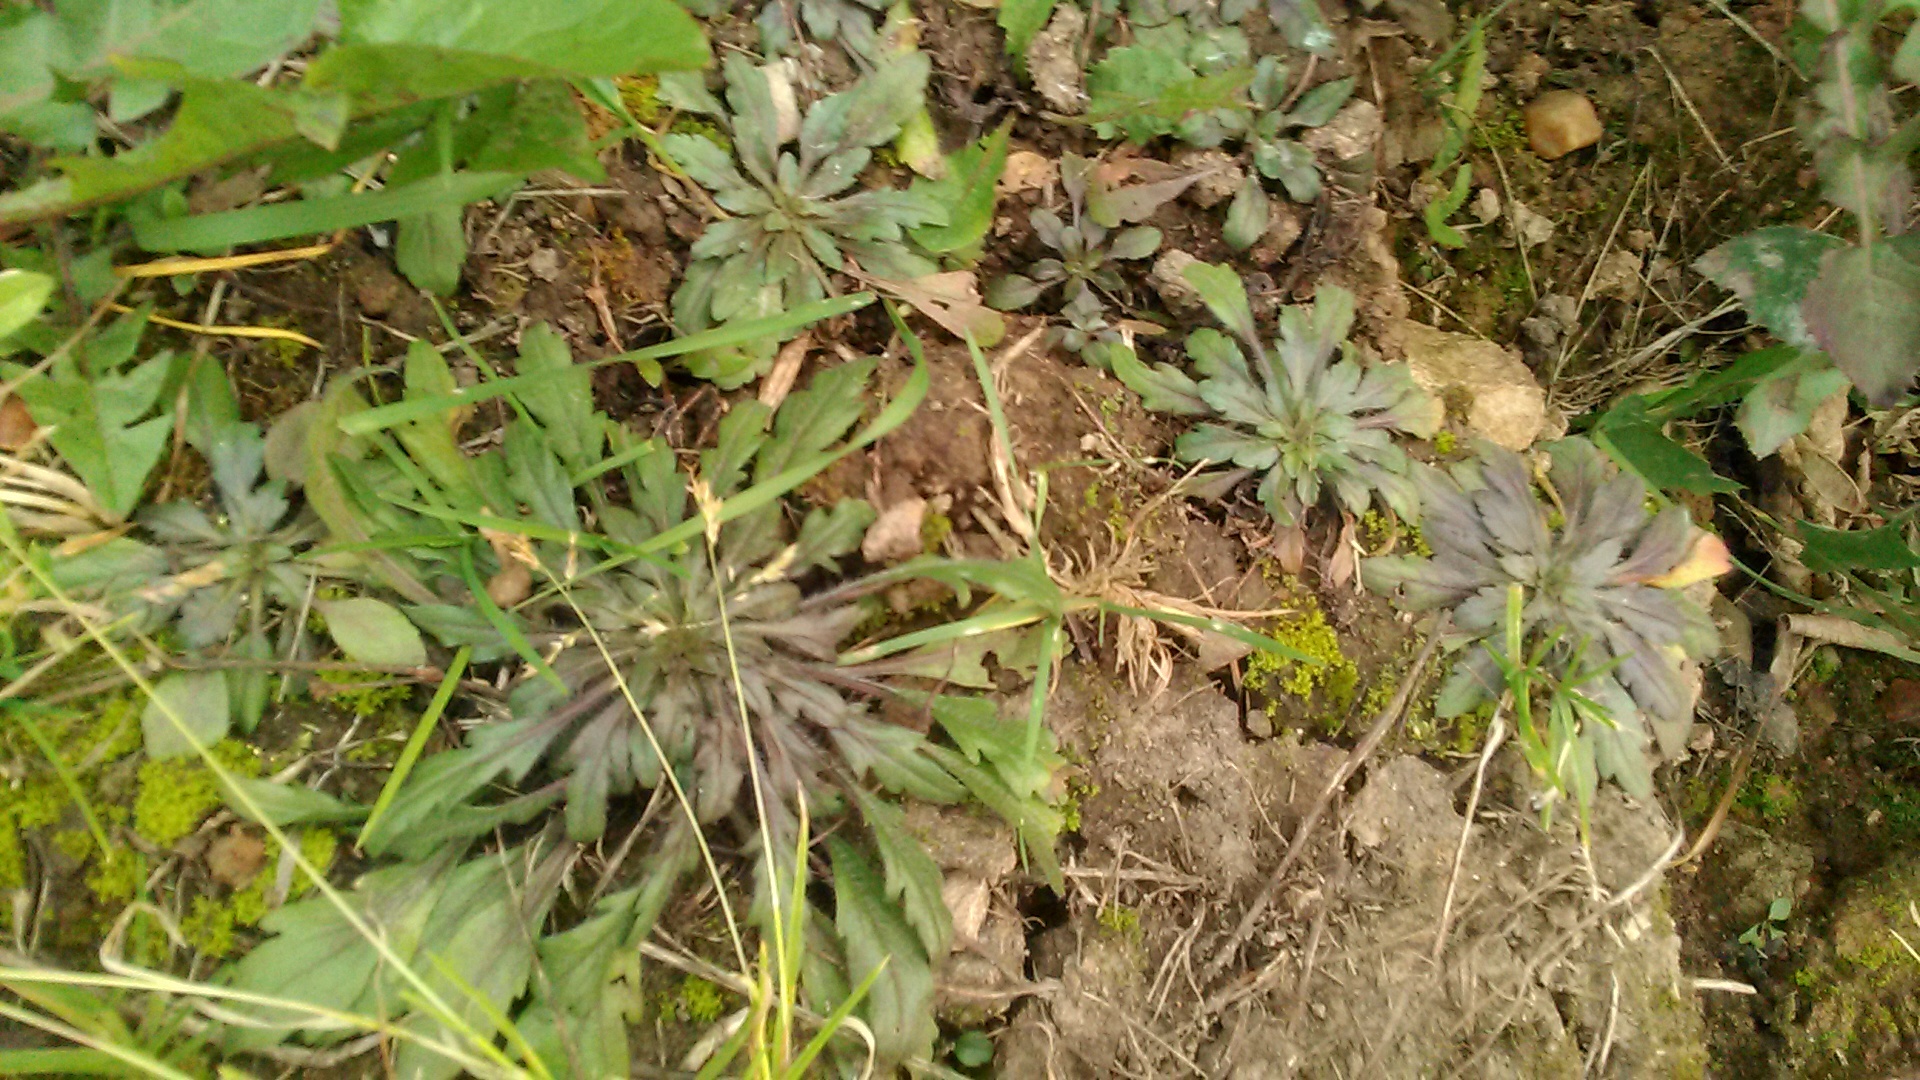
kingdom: Plantae
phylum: Tracheophyta
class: Magnoliopsida
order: Asterales
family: Asteraceae
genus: Erigeron
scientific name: Erigeron canadensis
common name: Canadian fleabane
